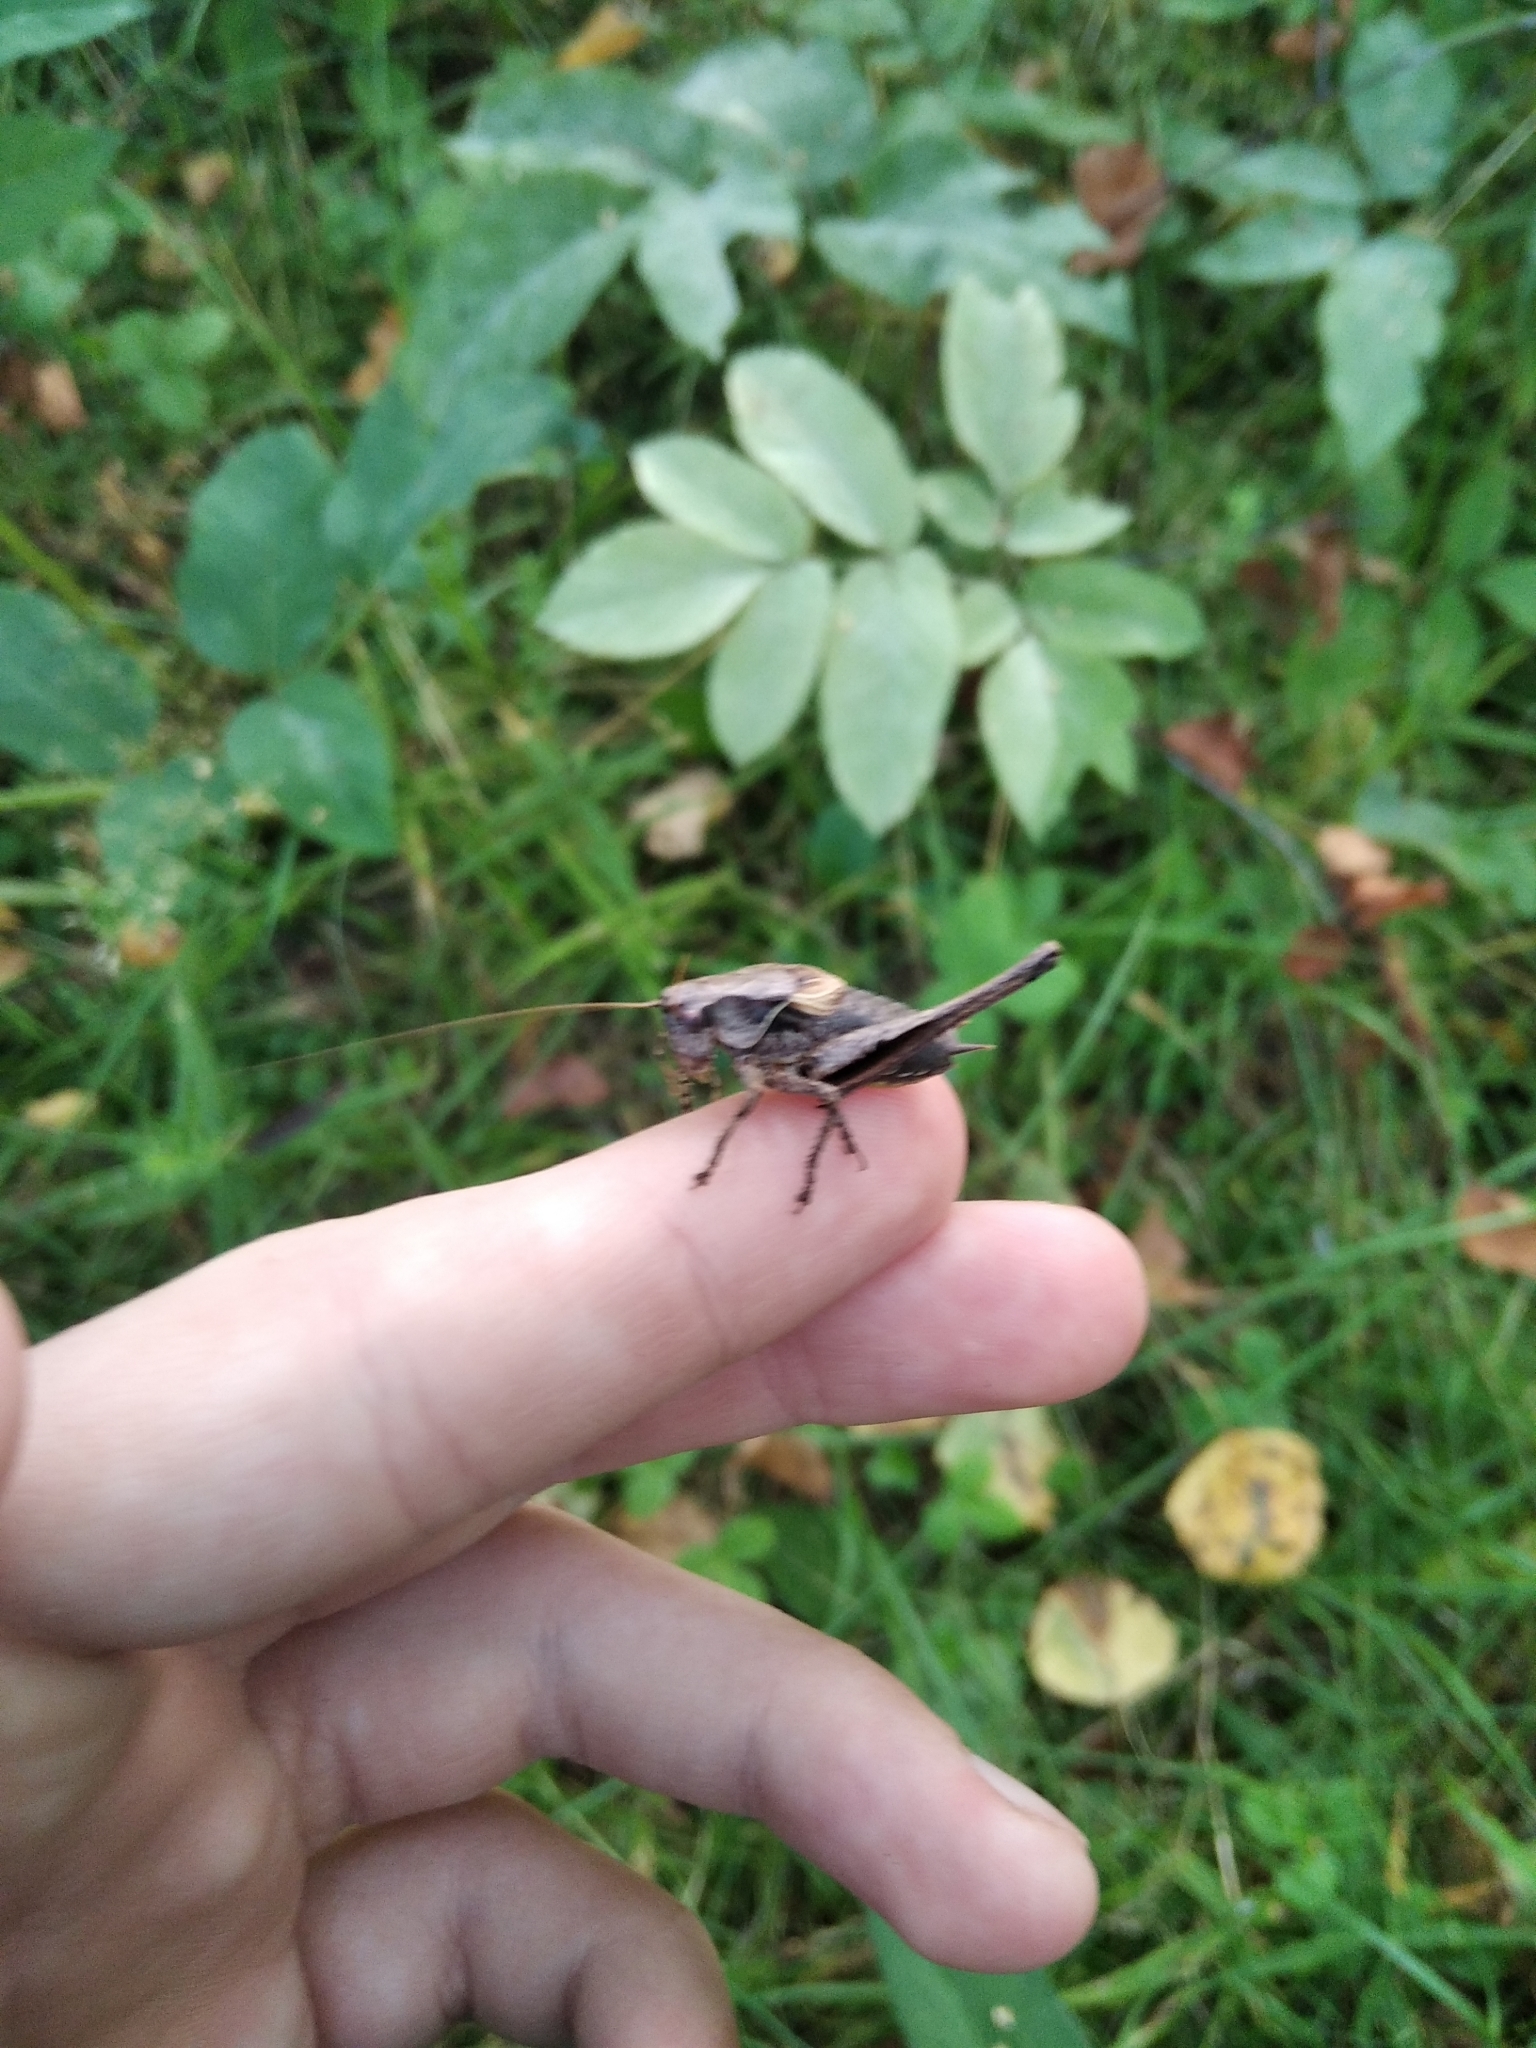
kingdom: Animalia
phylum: Arthropoda
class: Insecta
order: Orthoptera
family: Tettigoniidae
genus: Pholidoptera
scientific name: Pholidoptera griseoaptera
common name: Dark bush-cricket
